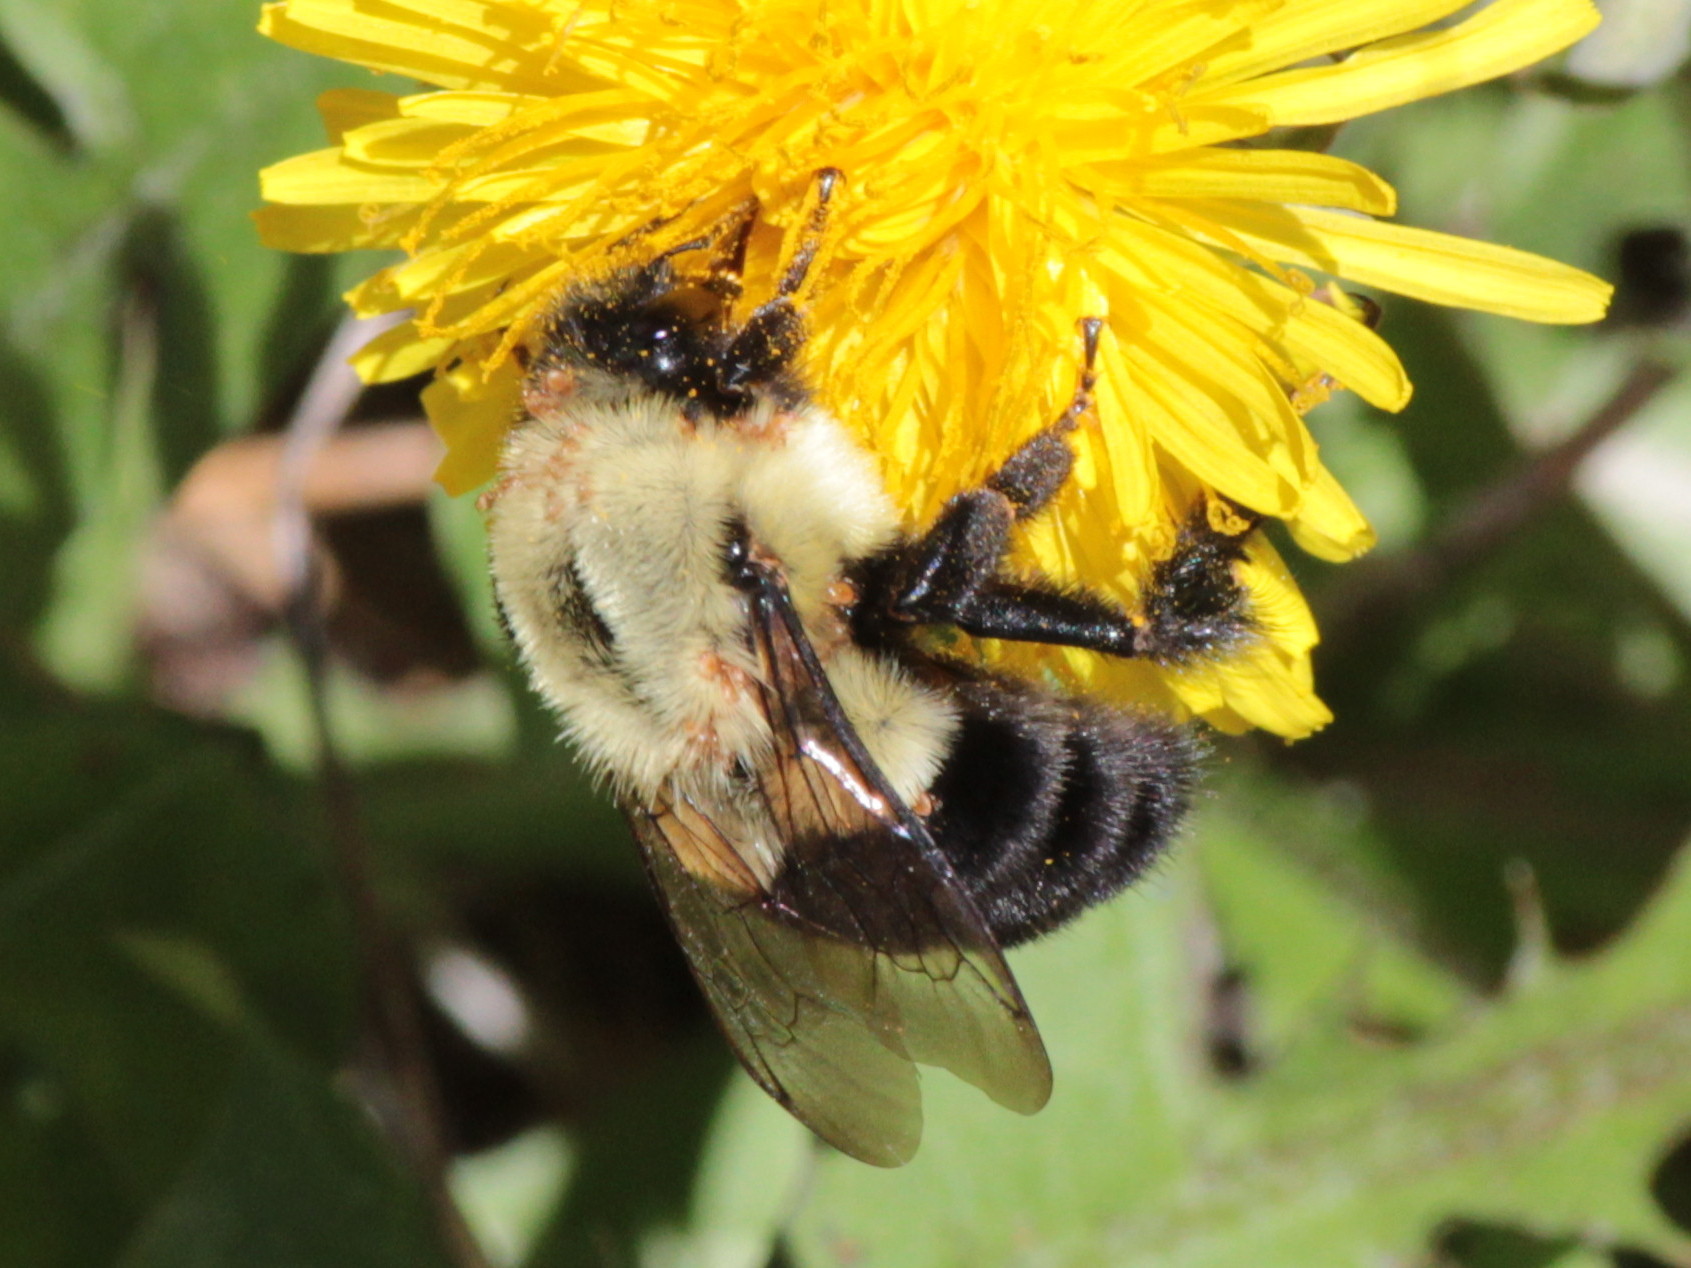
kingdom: Animalia
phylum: Arthropoda
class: Insecta
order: Hymenoptera
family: Apidae
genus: Bombus
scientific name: Bombus impatiens
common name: Common eastern bumble bee
